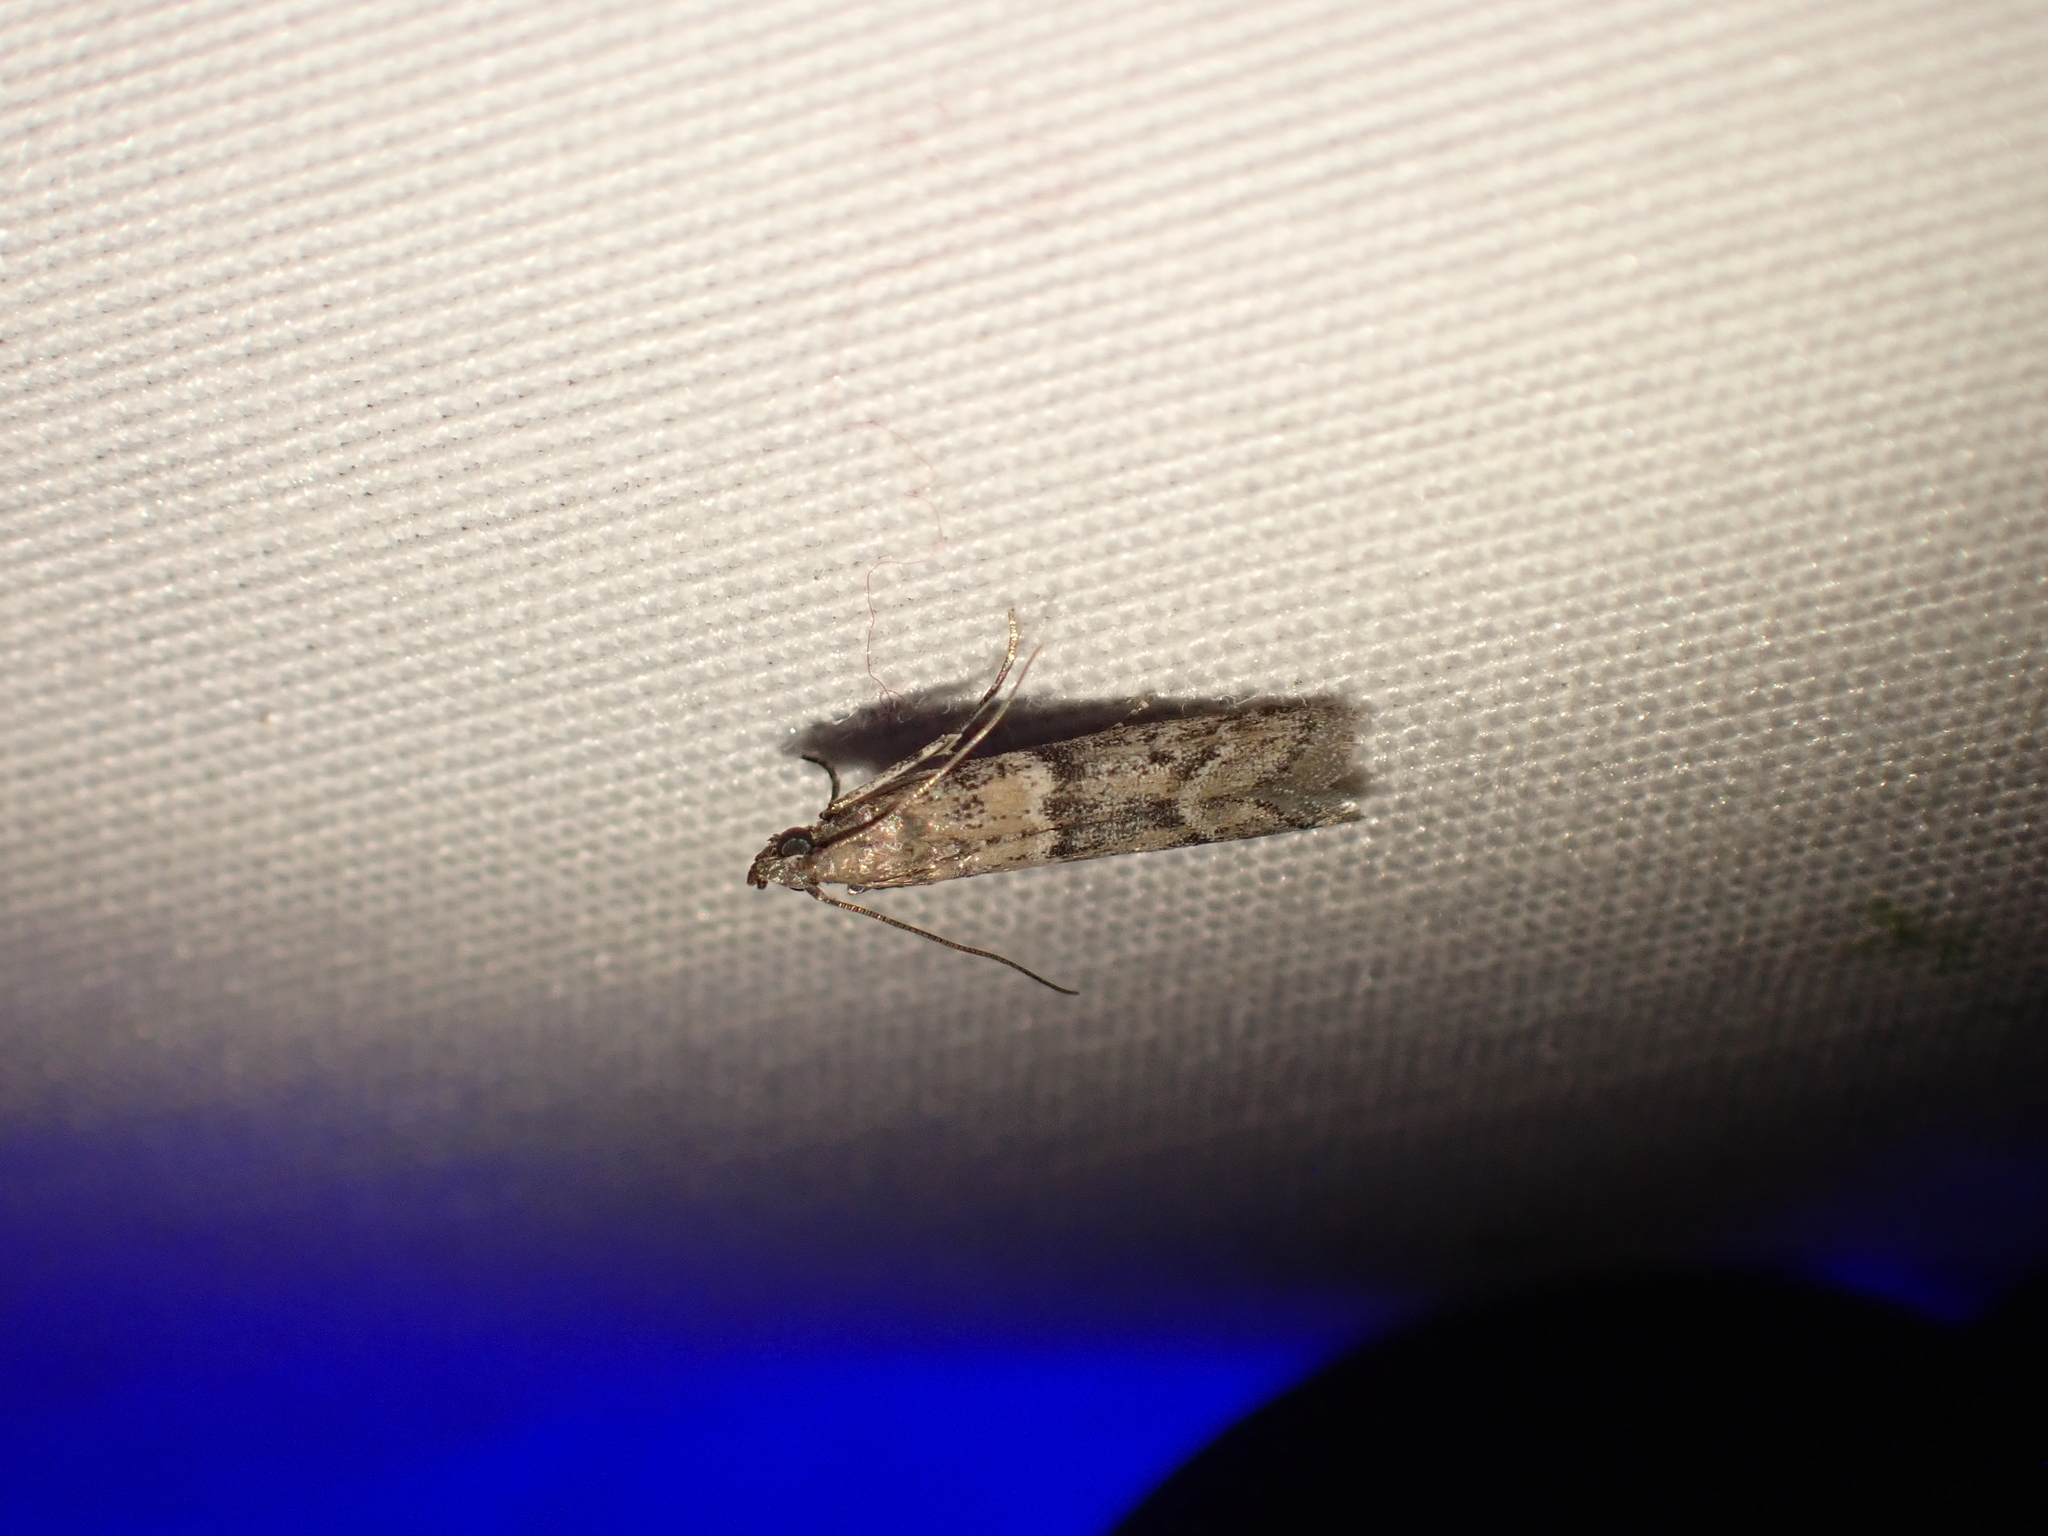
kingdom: Animalia
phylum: Arthropoda
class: Insecta
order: Lepidoptera
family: Pyralidae
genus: Ephestiodes
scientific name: Ephestiodes gilvescentella
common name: Moth
